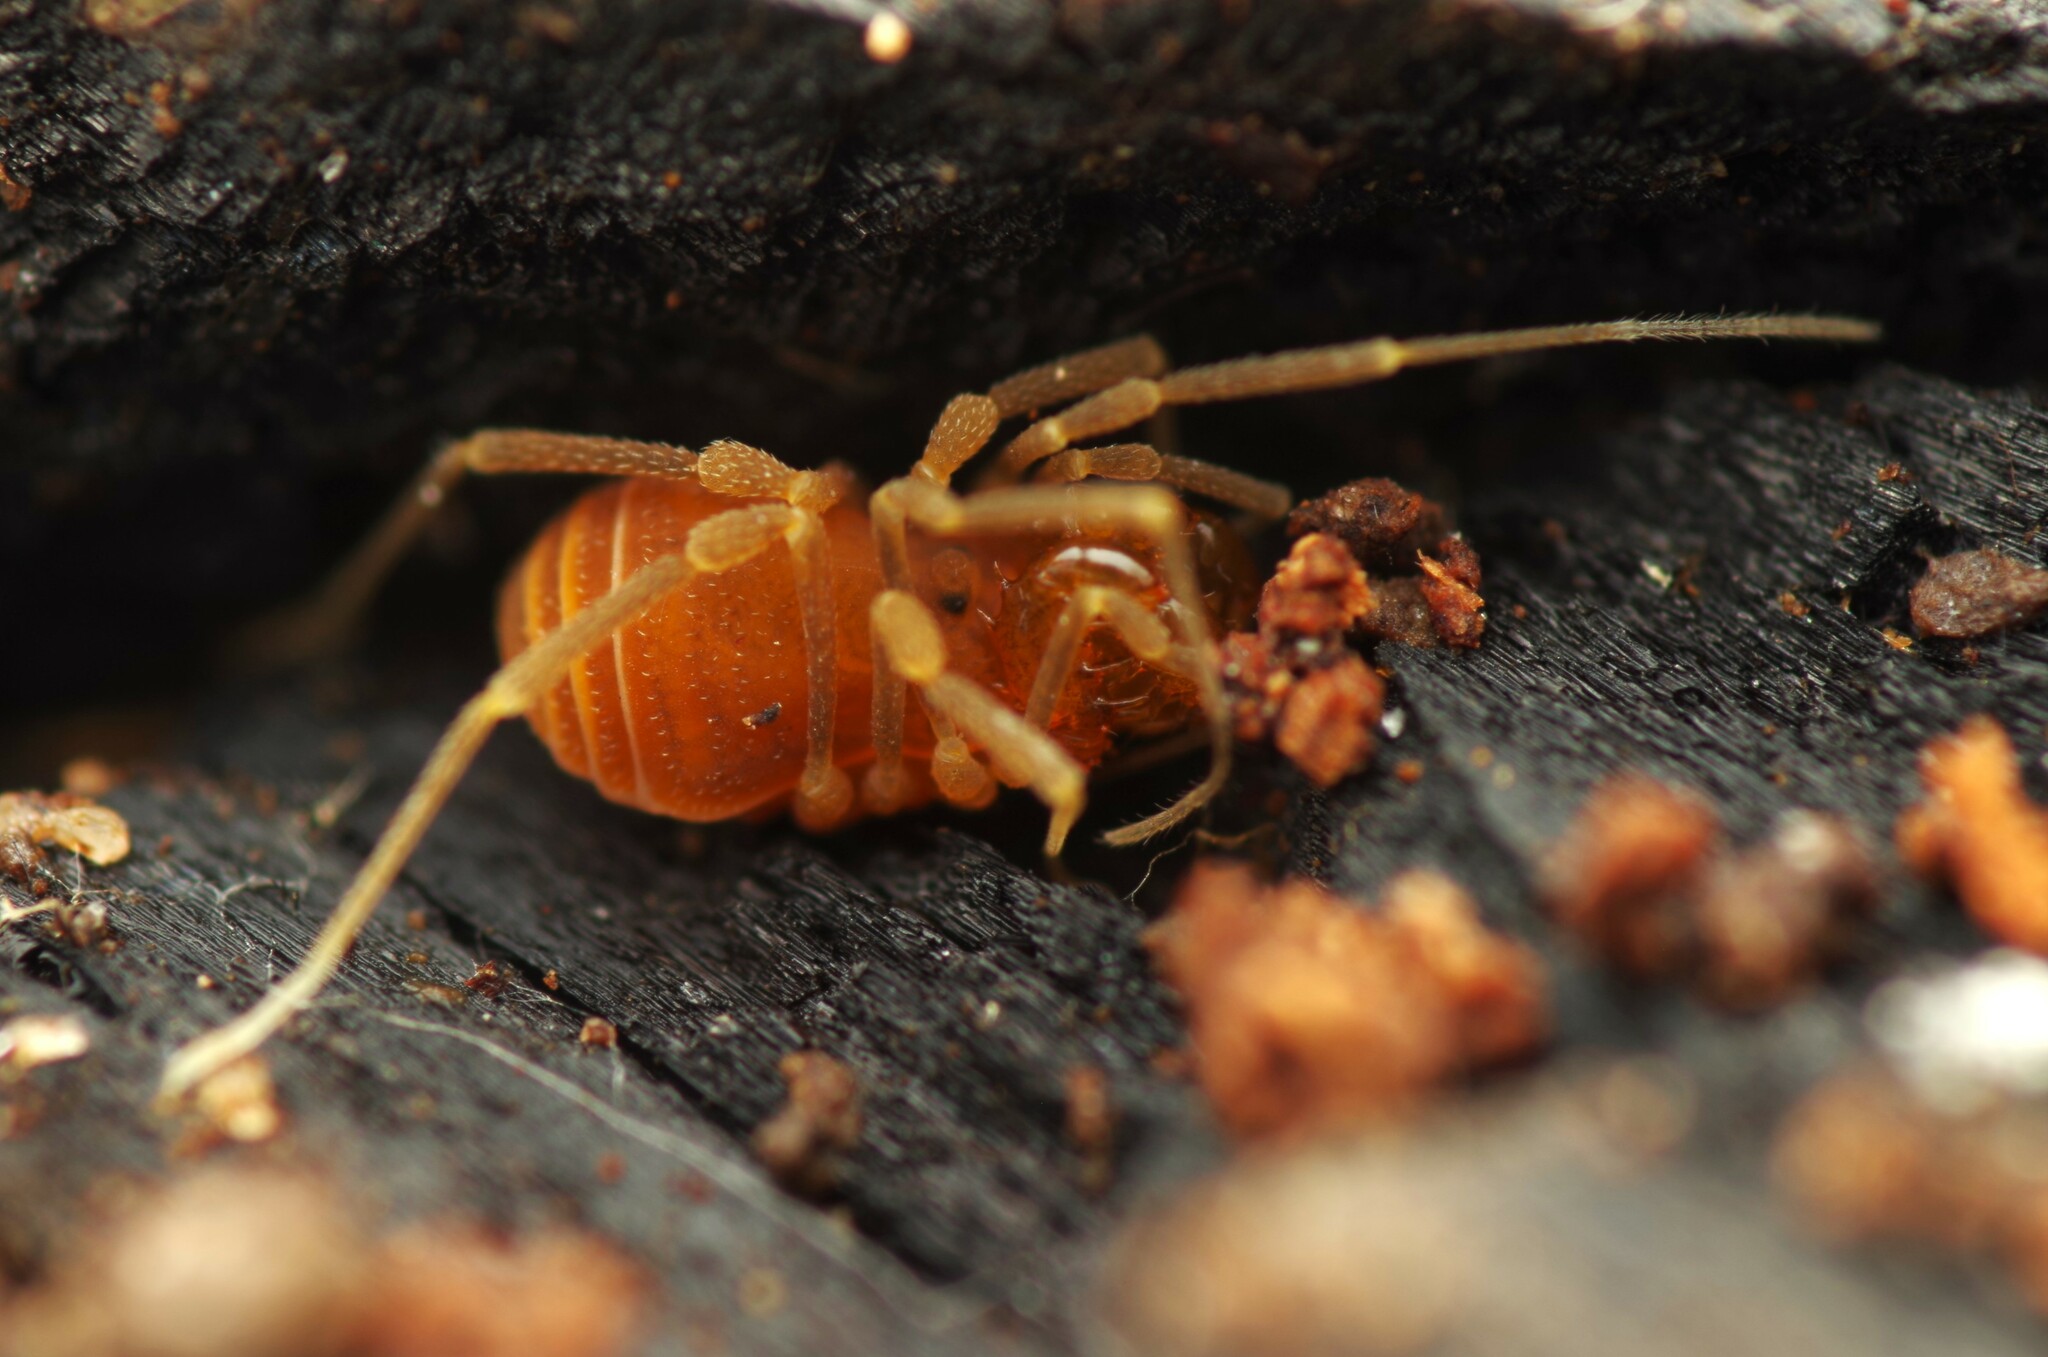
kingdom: Animalia
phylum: Arthropoda
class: Arachnida
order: Opiliones
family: Cladonychiidae
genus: Holoscotolemon
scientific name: Holoscotolemon querilhaci
